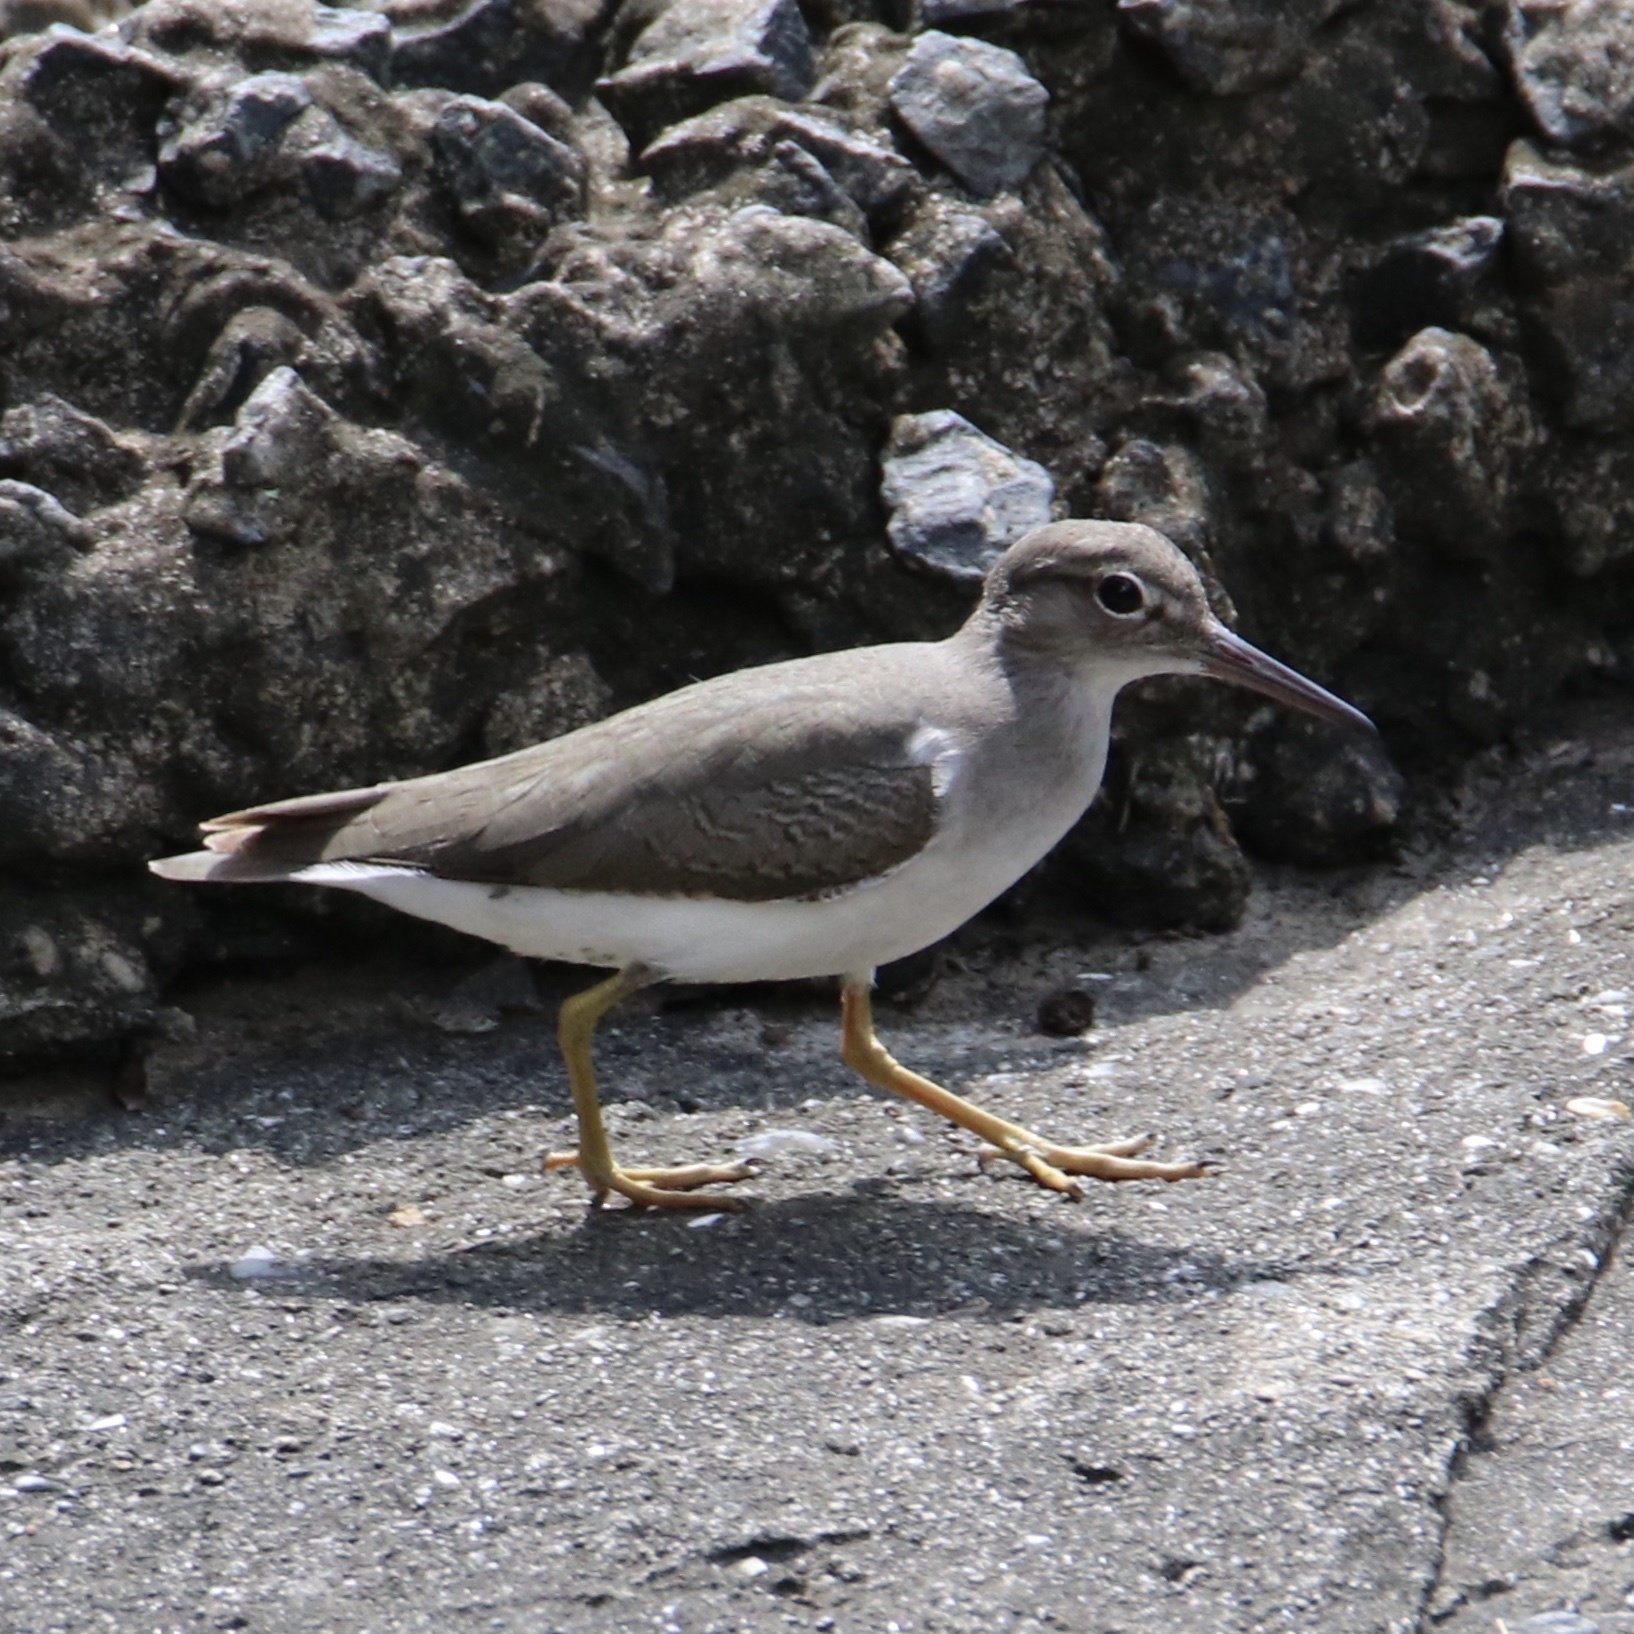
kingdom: Animalia
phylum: Chordata
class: Aves
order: Charadriiformes
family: Scolopacidae
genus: Actitis
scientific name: Actitis macularius
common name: Spotted sandpiper
